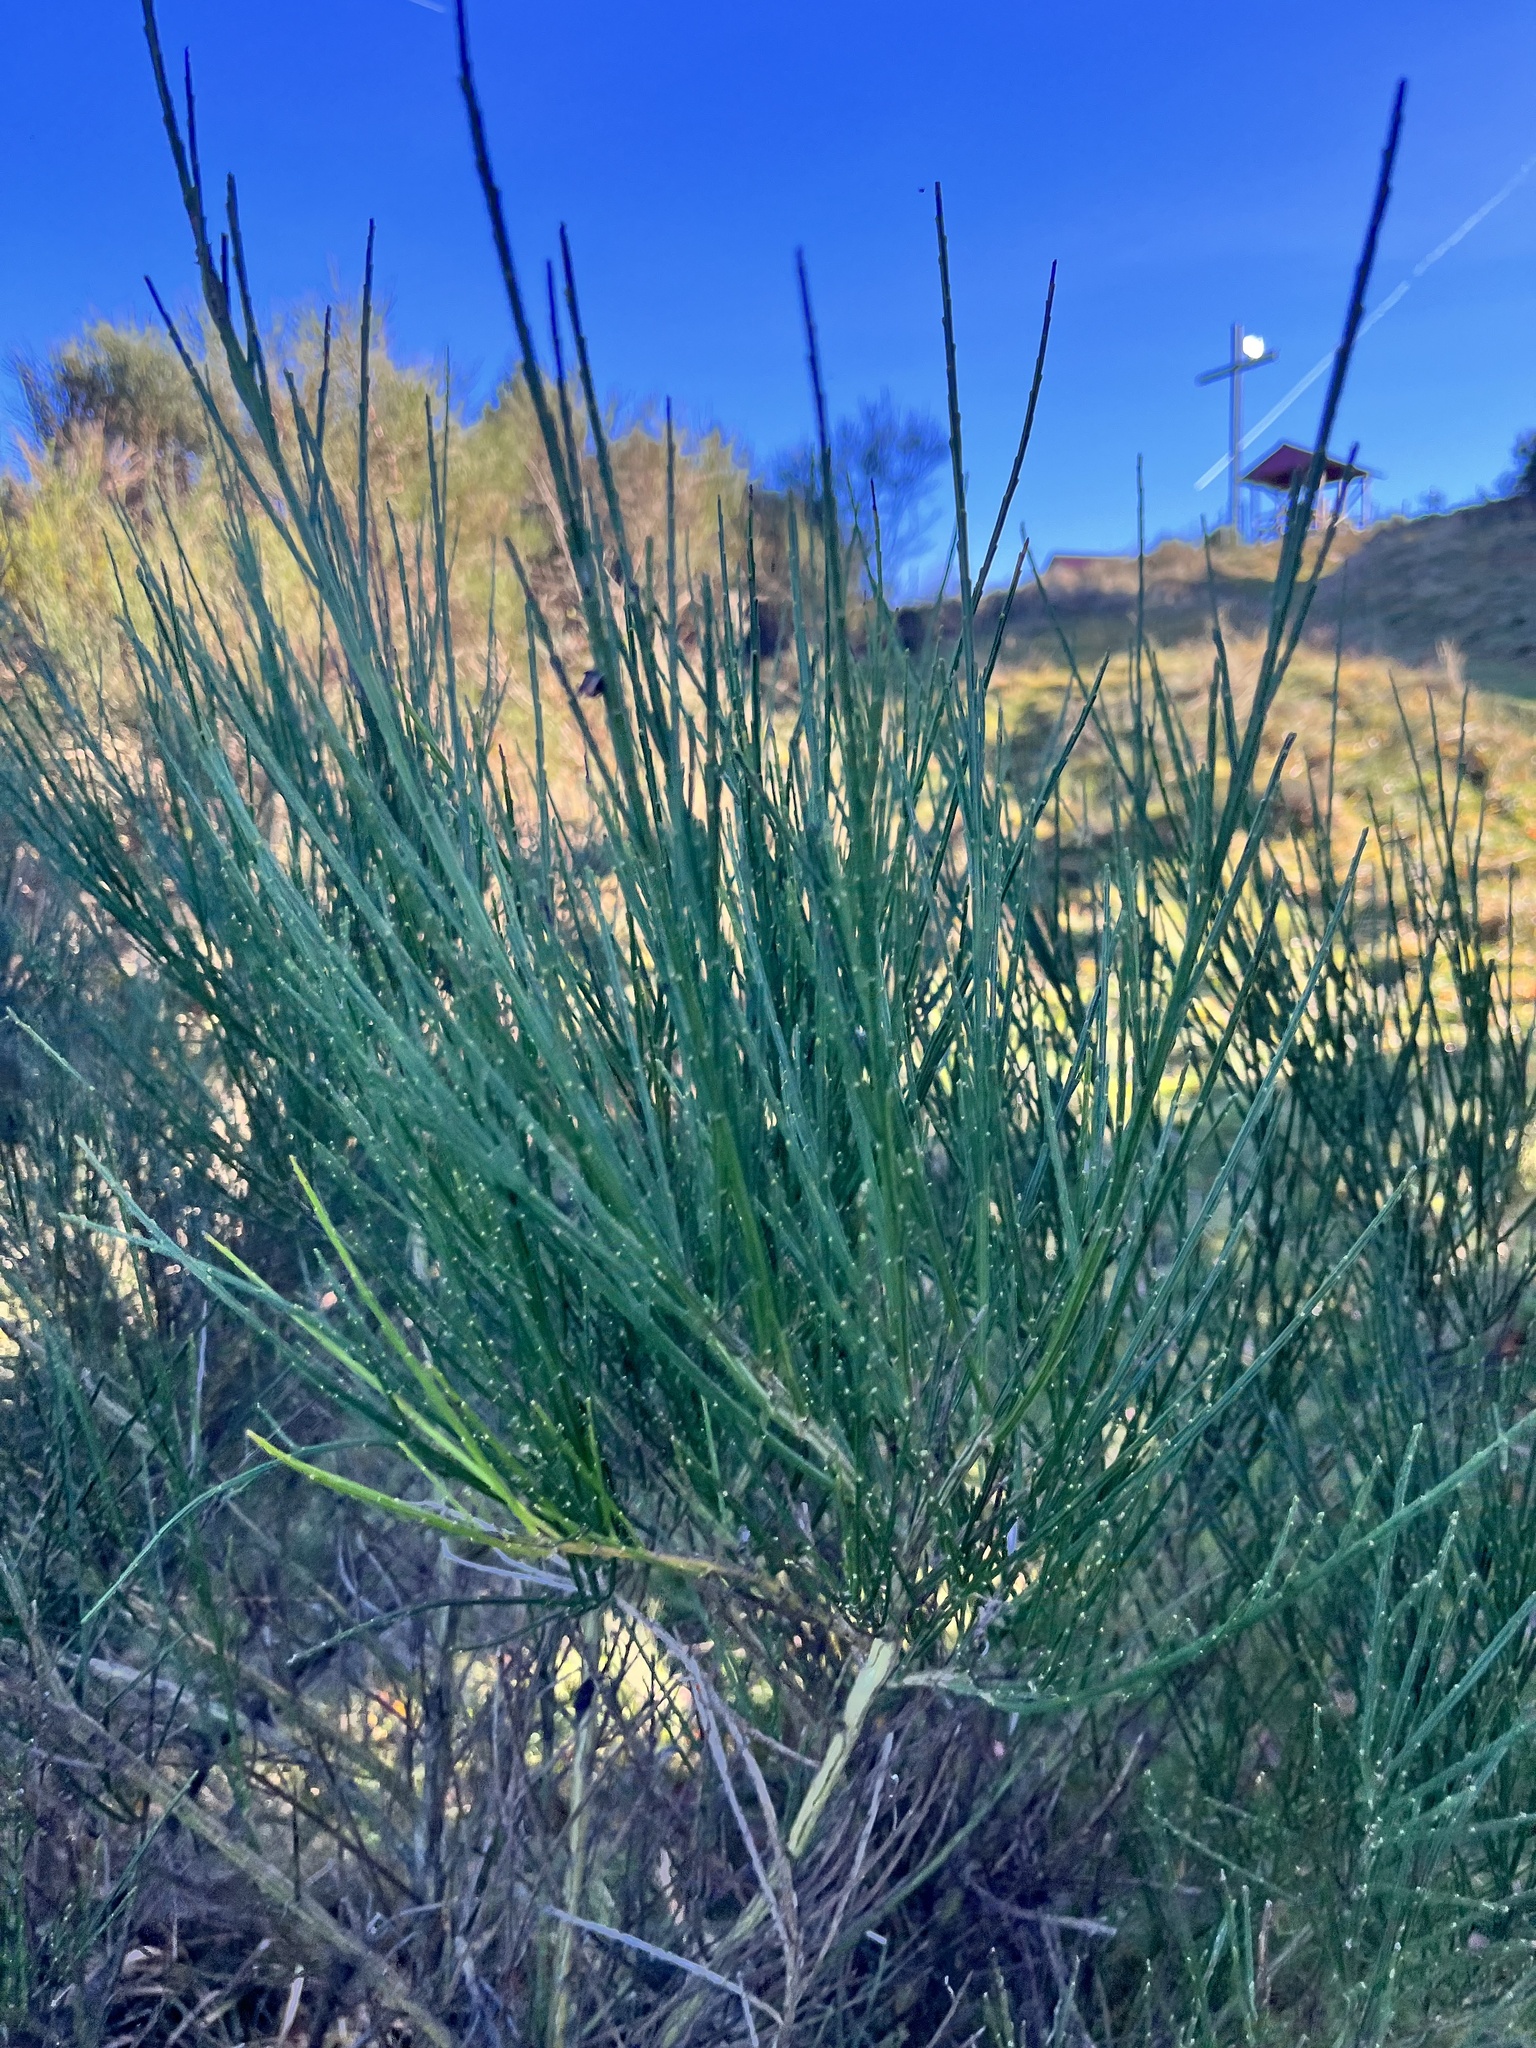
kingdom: Plantae
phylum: Tracheophyta
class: Magnoliopsida
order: Fabales
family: Fabaceae
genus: Cytisus
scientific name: Cytisus scoparius
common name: Scotch broom
